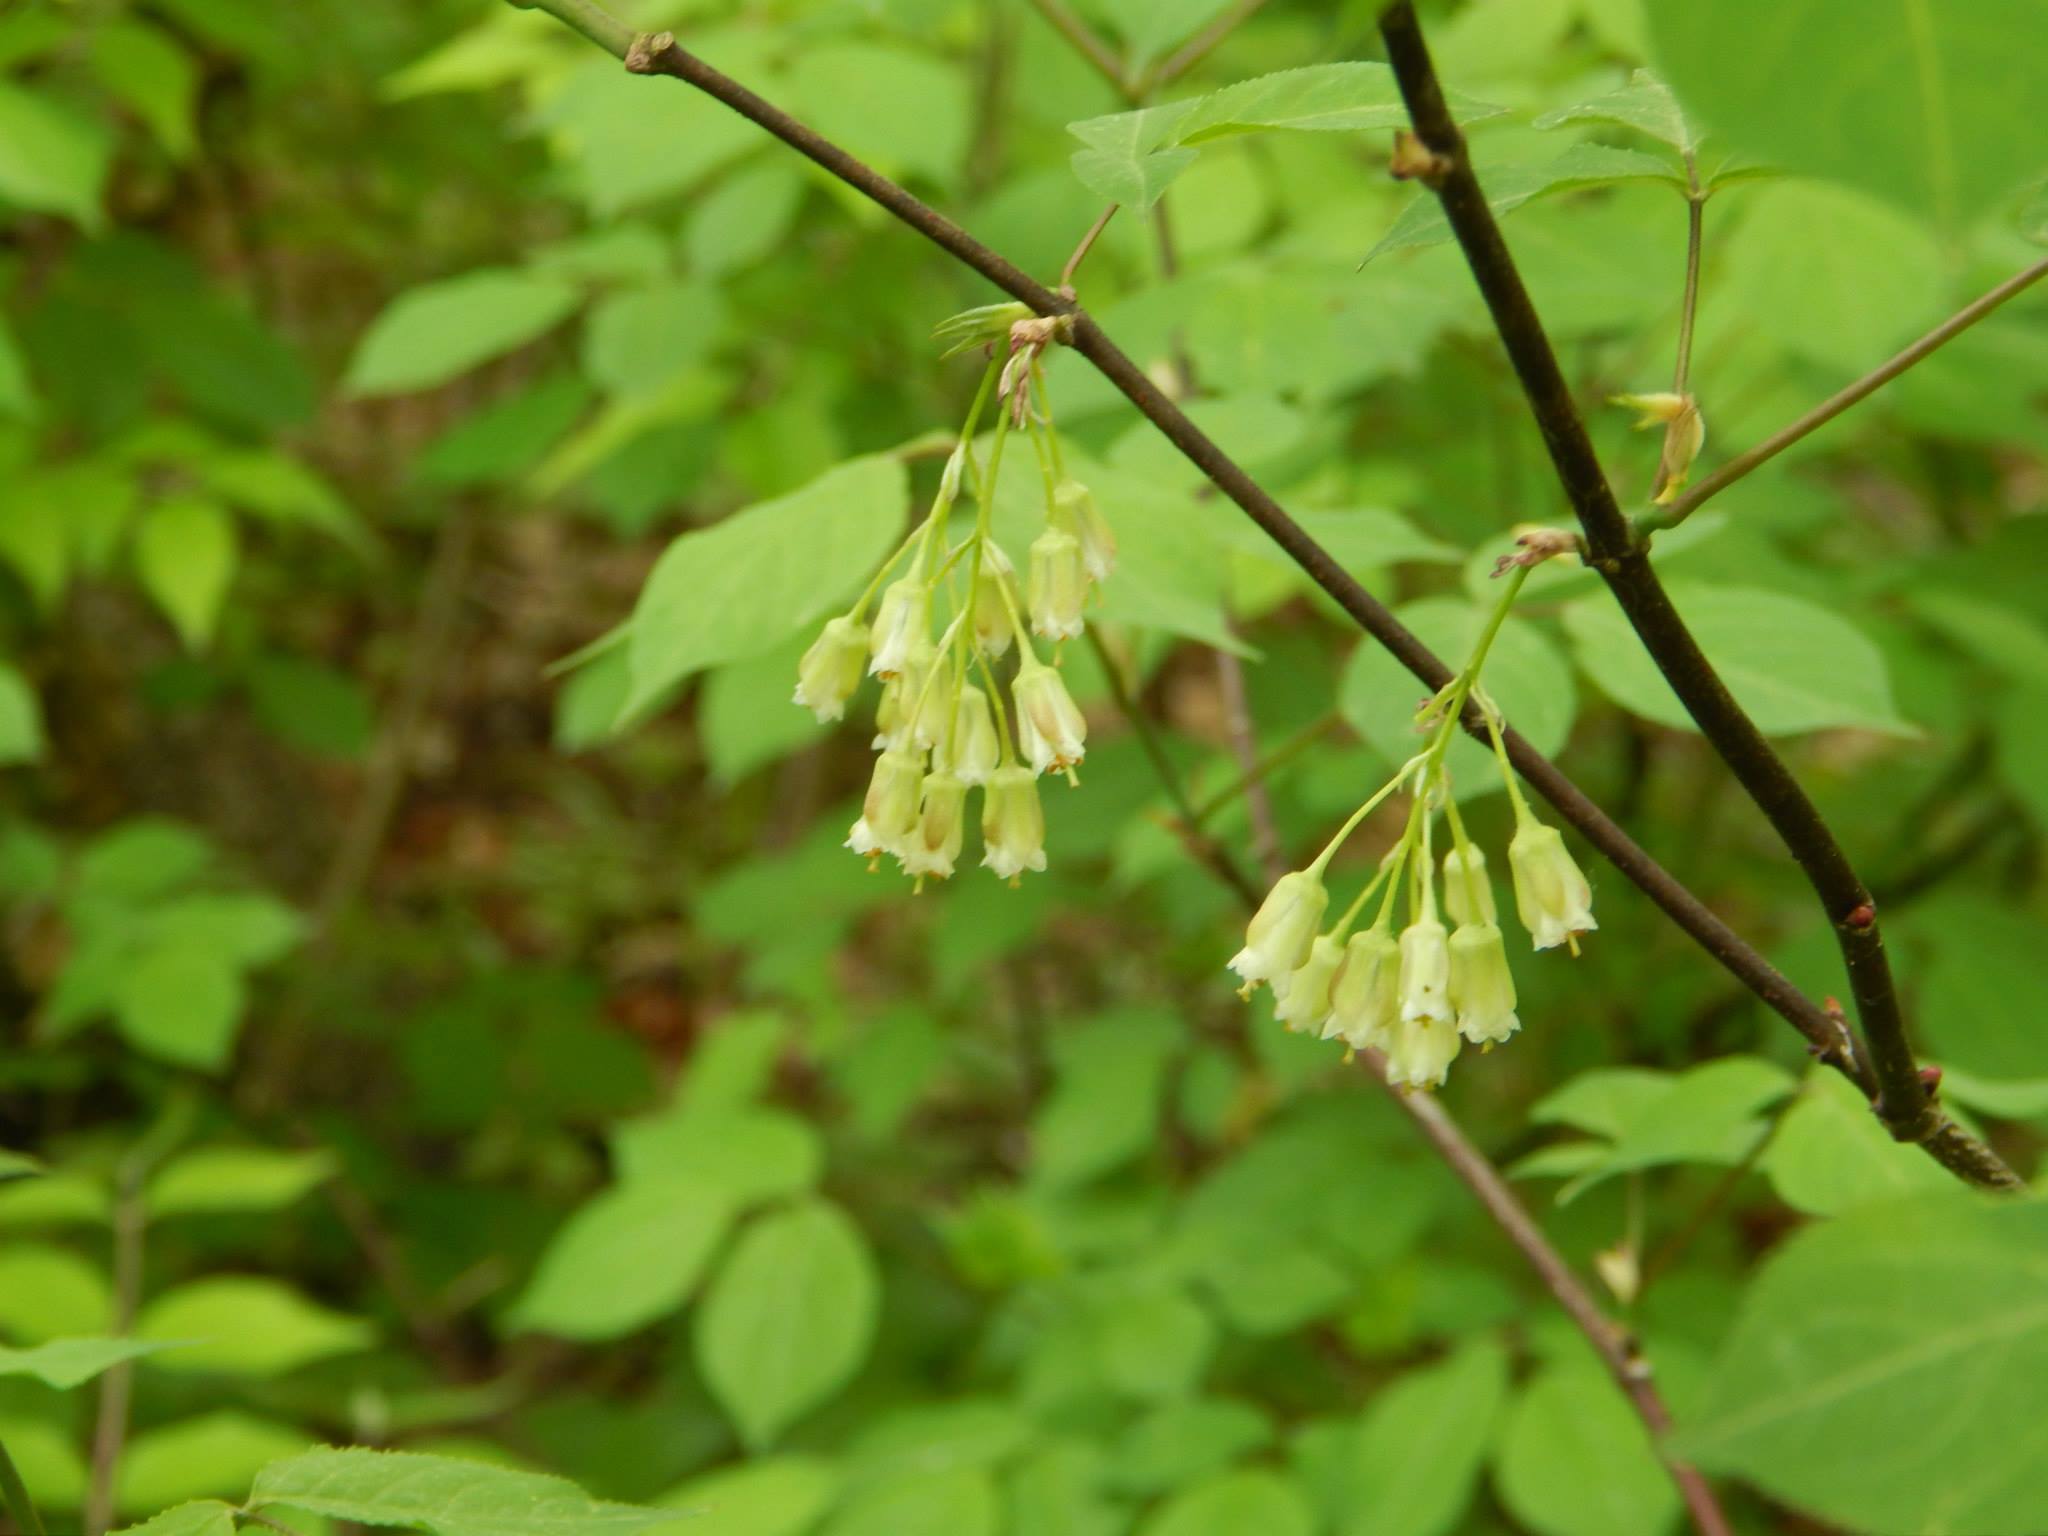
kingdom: Plantae
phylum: Tracheophyta
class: Magnoliopsida
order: Crossosomatales
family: Staphyleaceae
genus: Staphylea
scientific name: Staphylea trifolia
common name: American bladdernut
